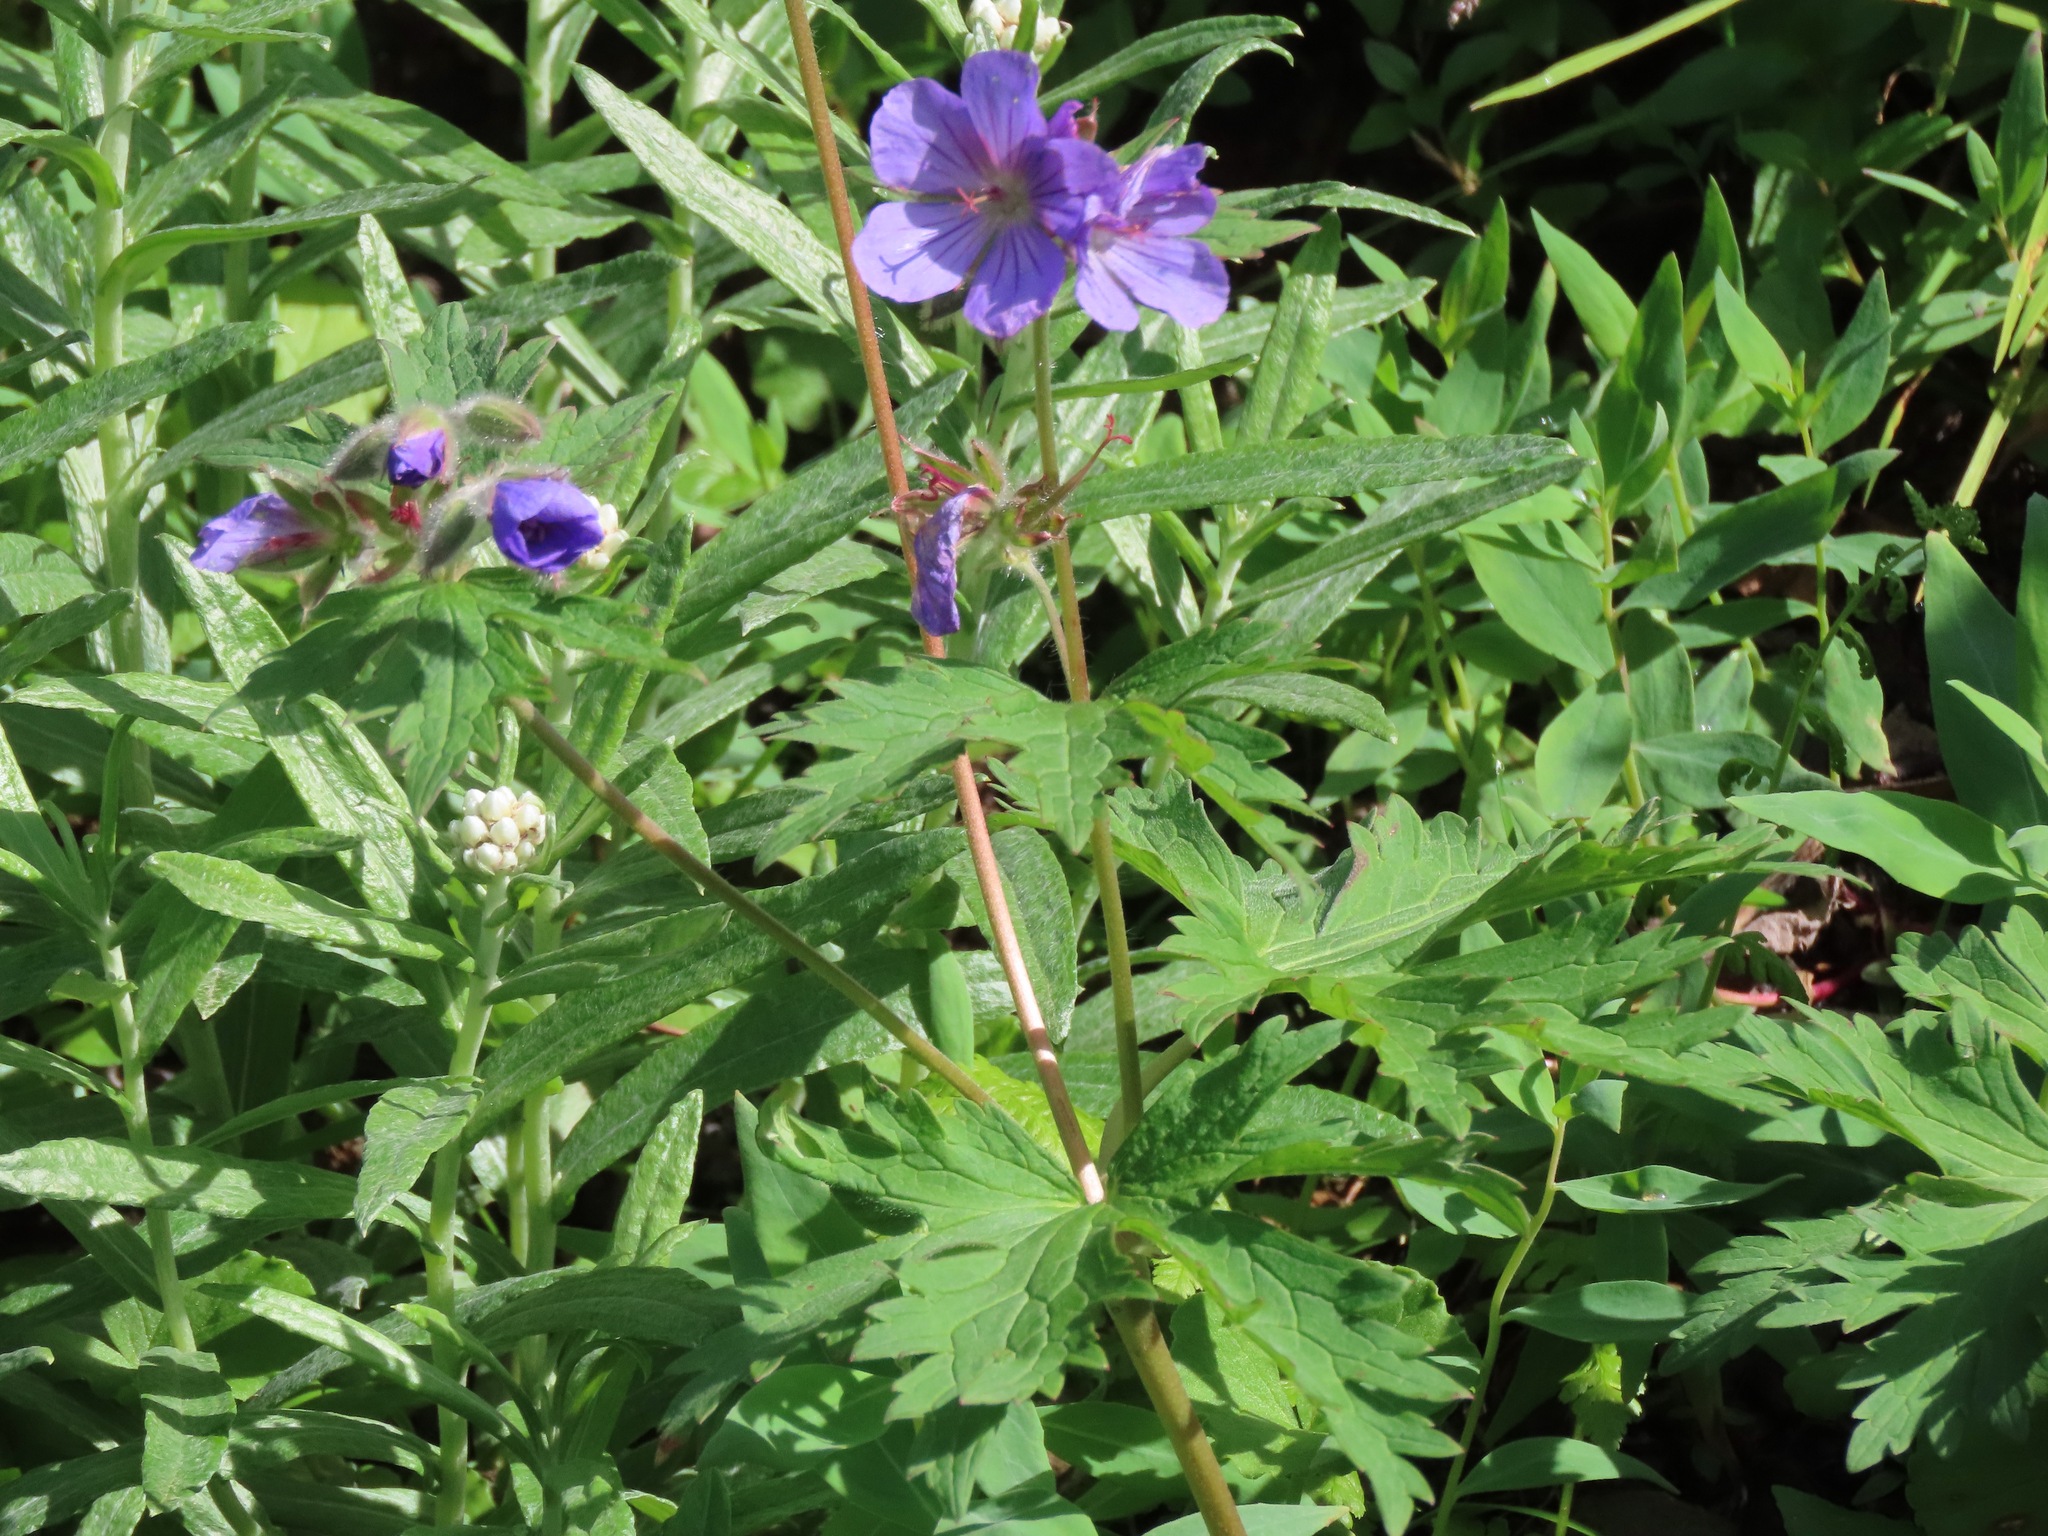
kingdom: Plantae
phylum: Tracheophyta
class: Magnoliopsida
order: Geraniales
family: Geraniaceae
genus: Geranium
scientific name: Geranium erianthum
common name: Northern crane's-bill
